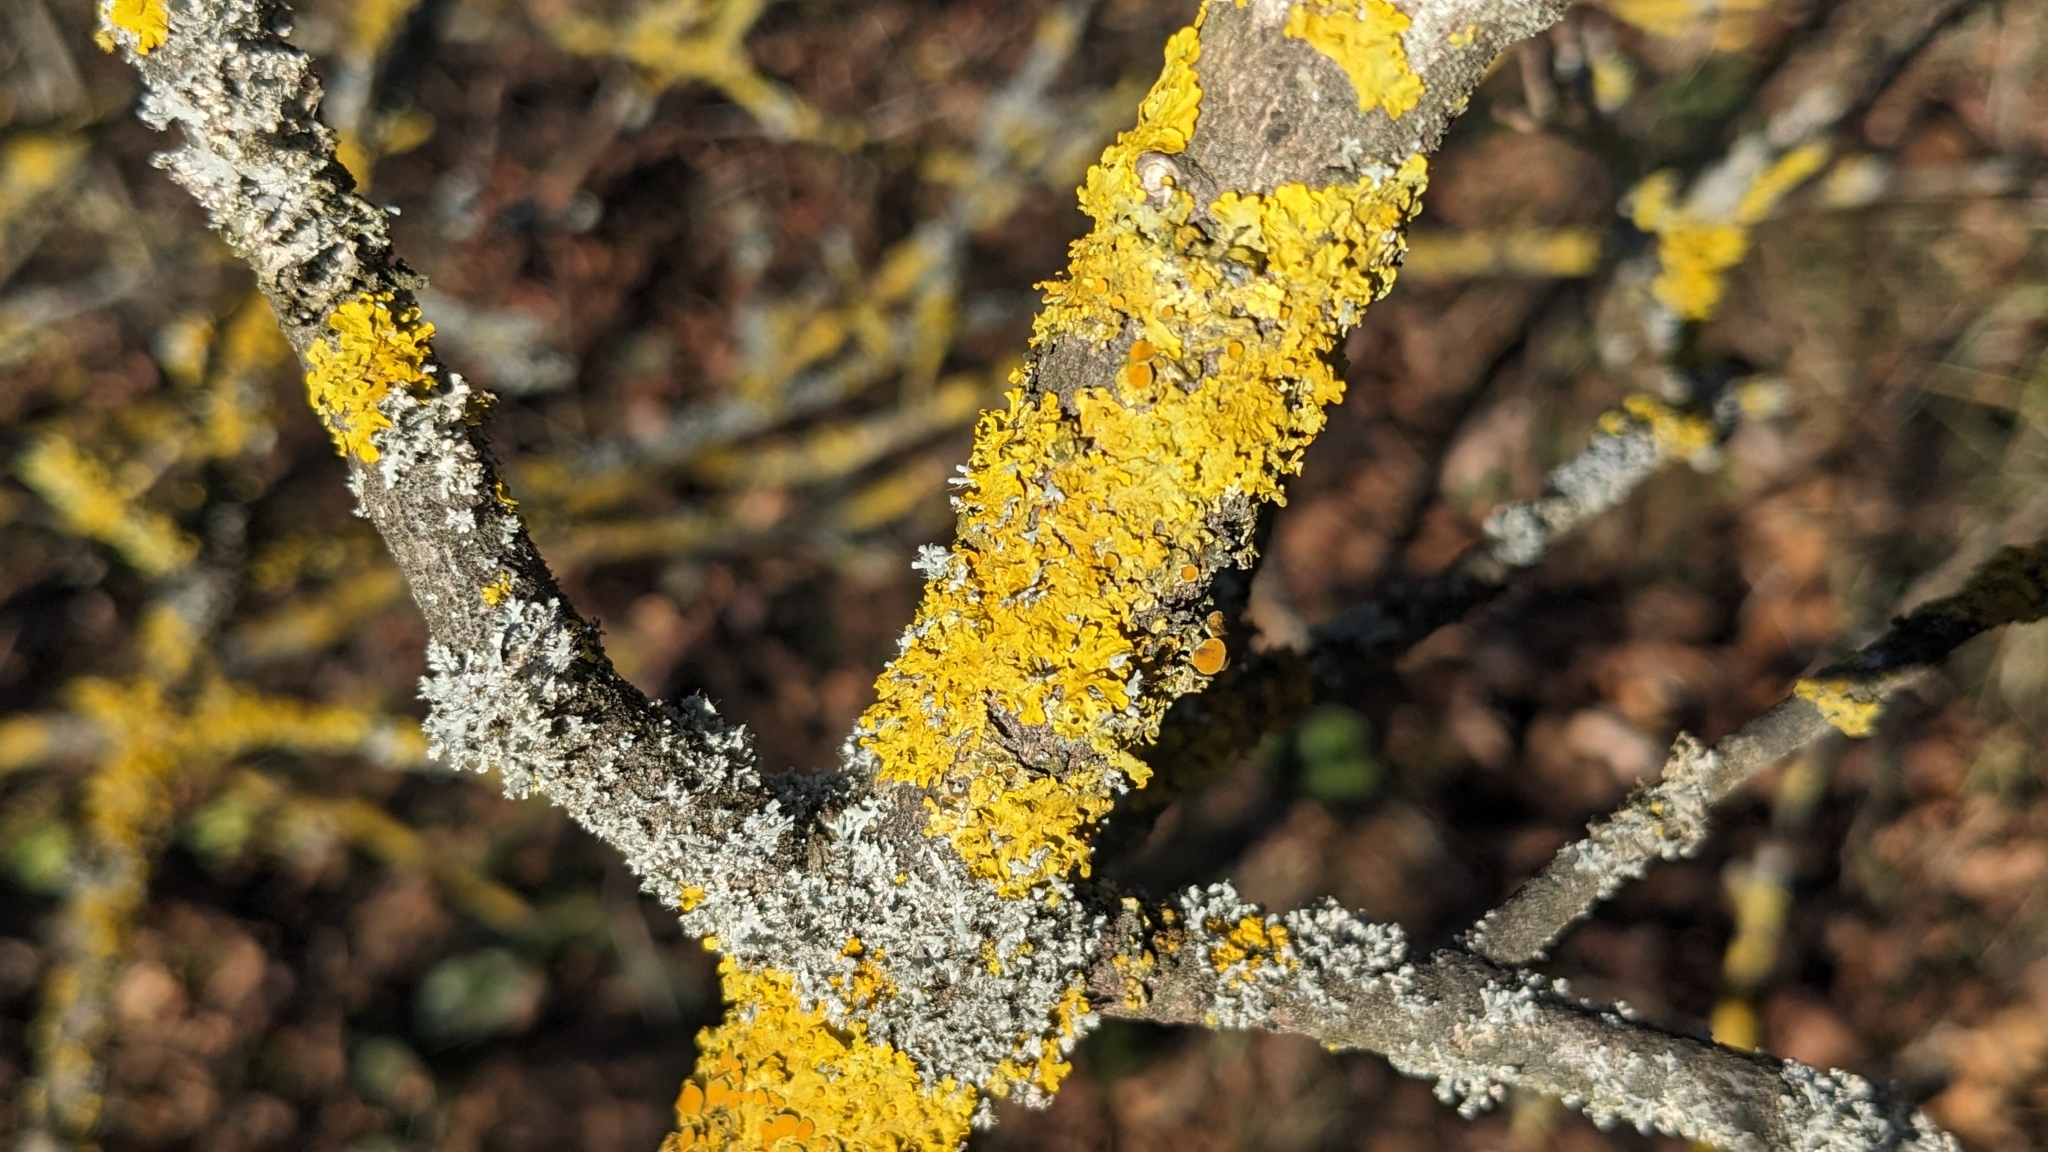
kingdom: Fungi
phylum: Ascomycota
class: Lecanoromycetes
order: Teloschistales
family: Teloschistaceae
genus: Xanthoria
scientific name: Xanthoria parietina
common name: Common orange lichen
